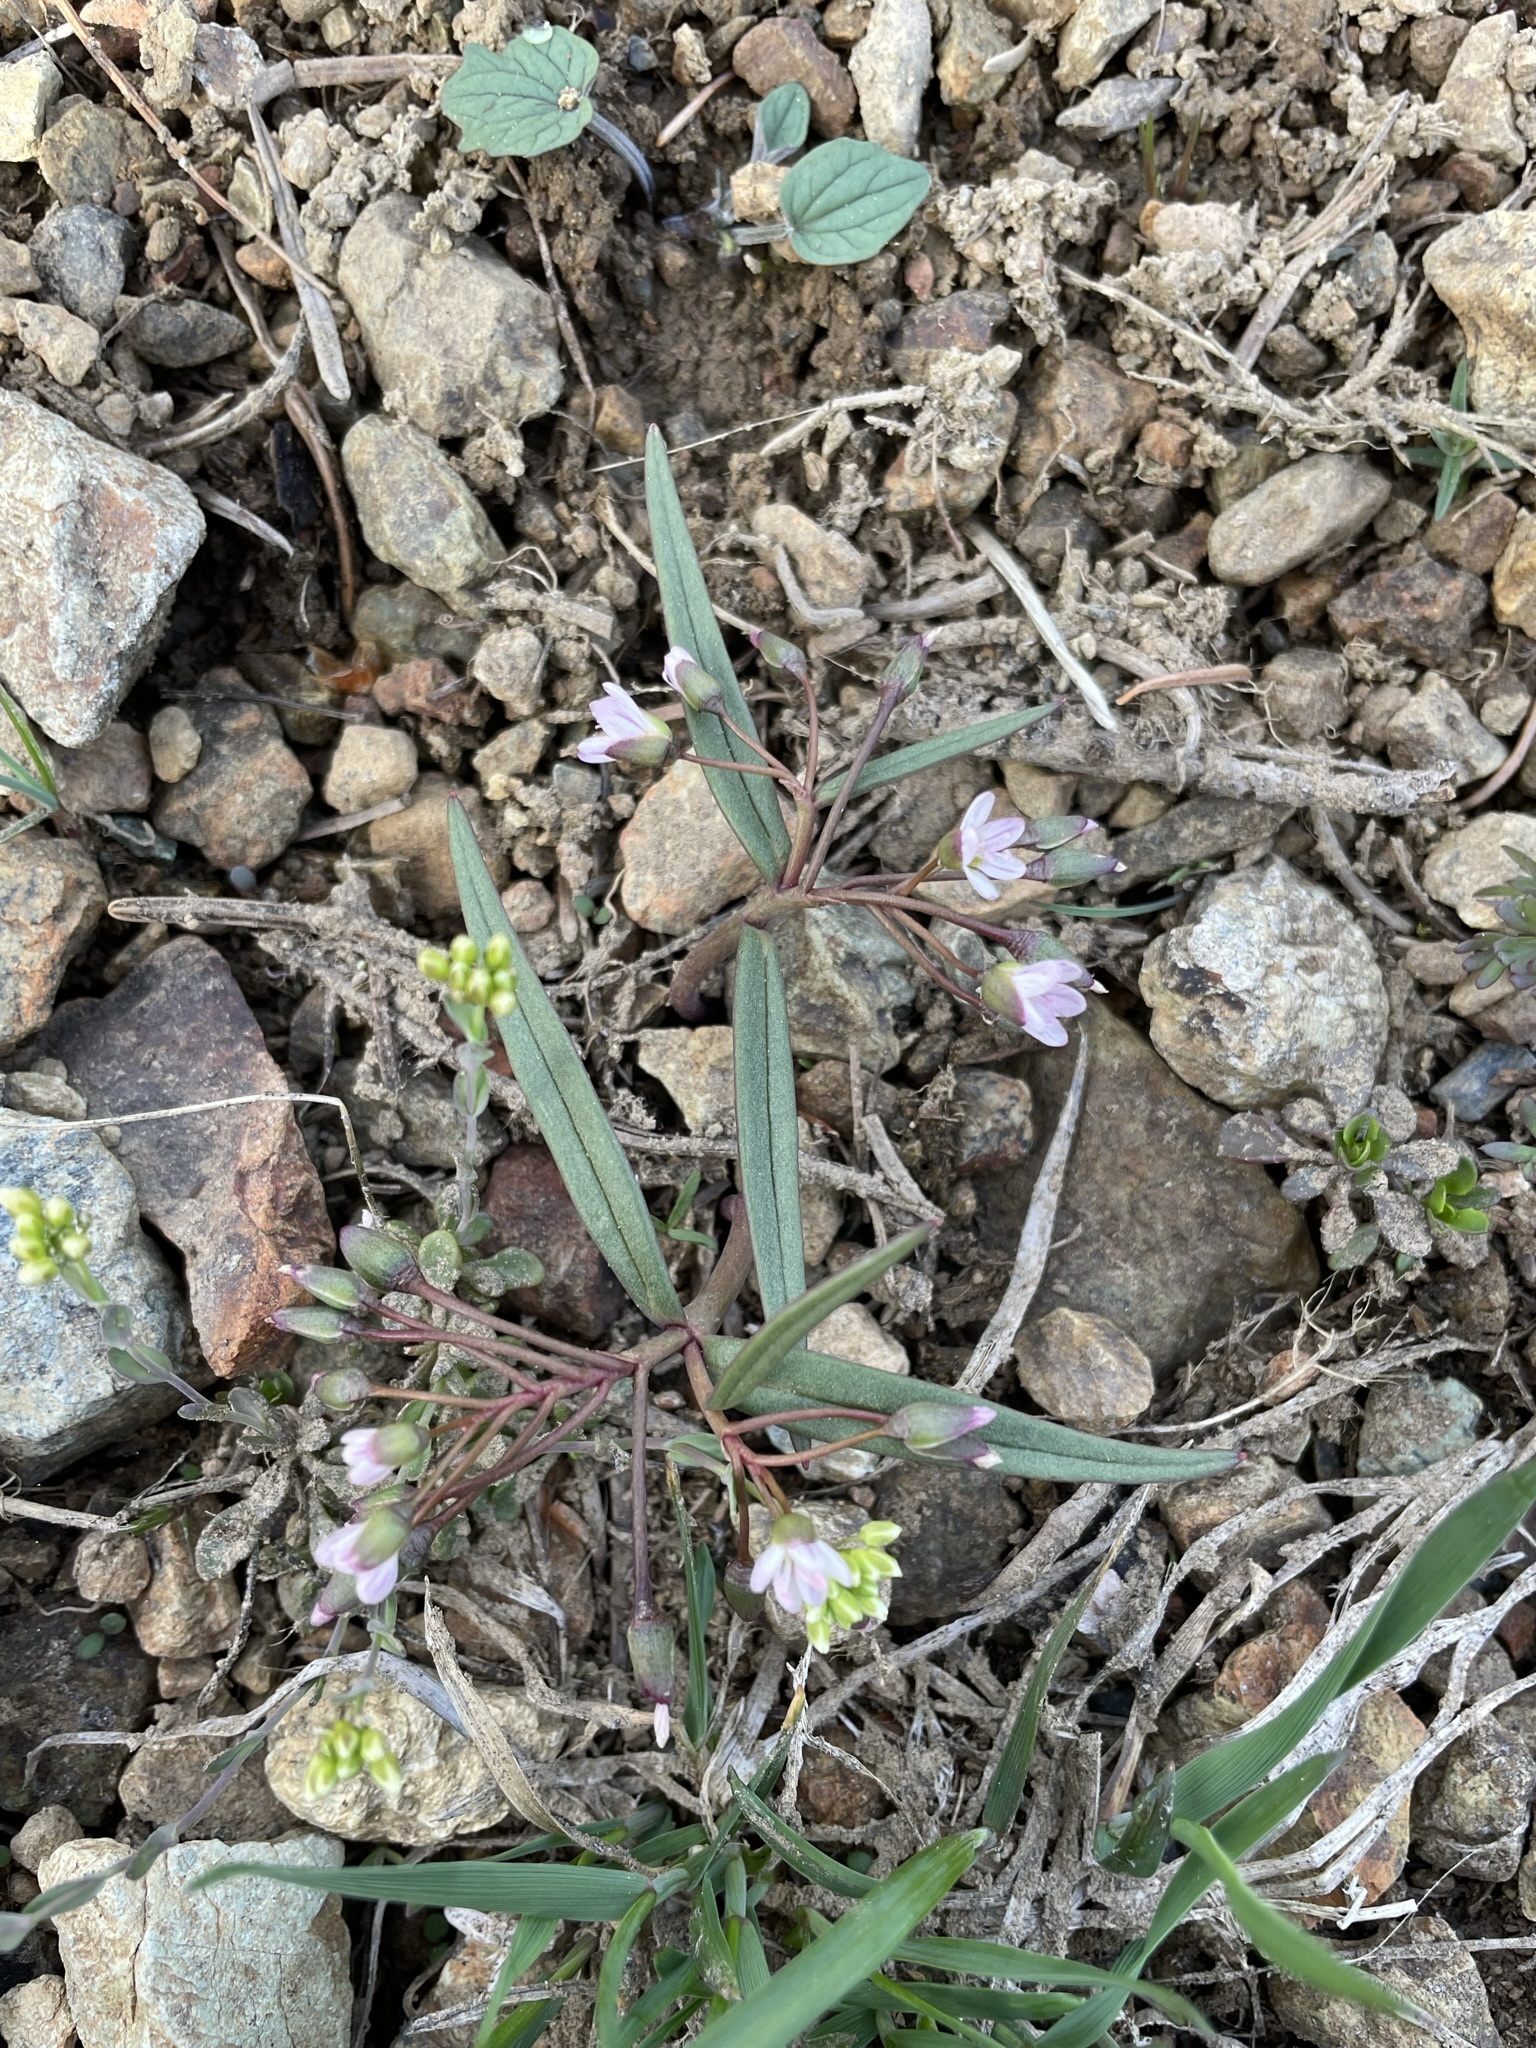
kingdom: Plantae
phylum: Tracheophyta
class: Magnoliopsida
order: Caryophyllales
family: Montiaceae
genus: Claytonia
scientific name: Claytonia serpenticola
